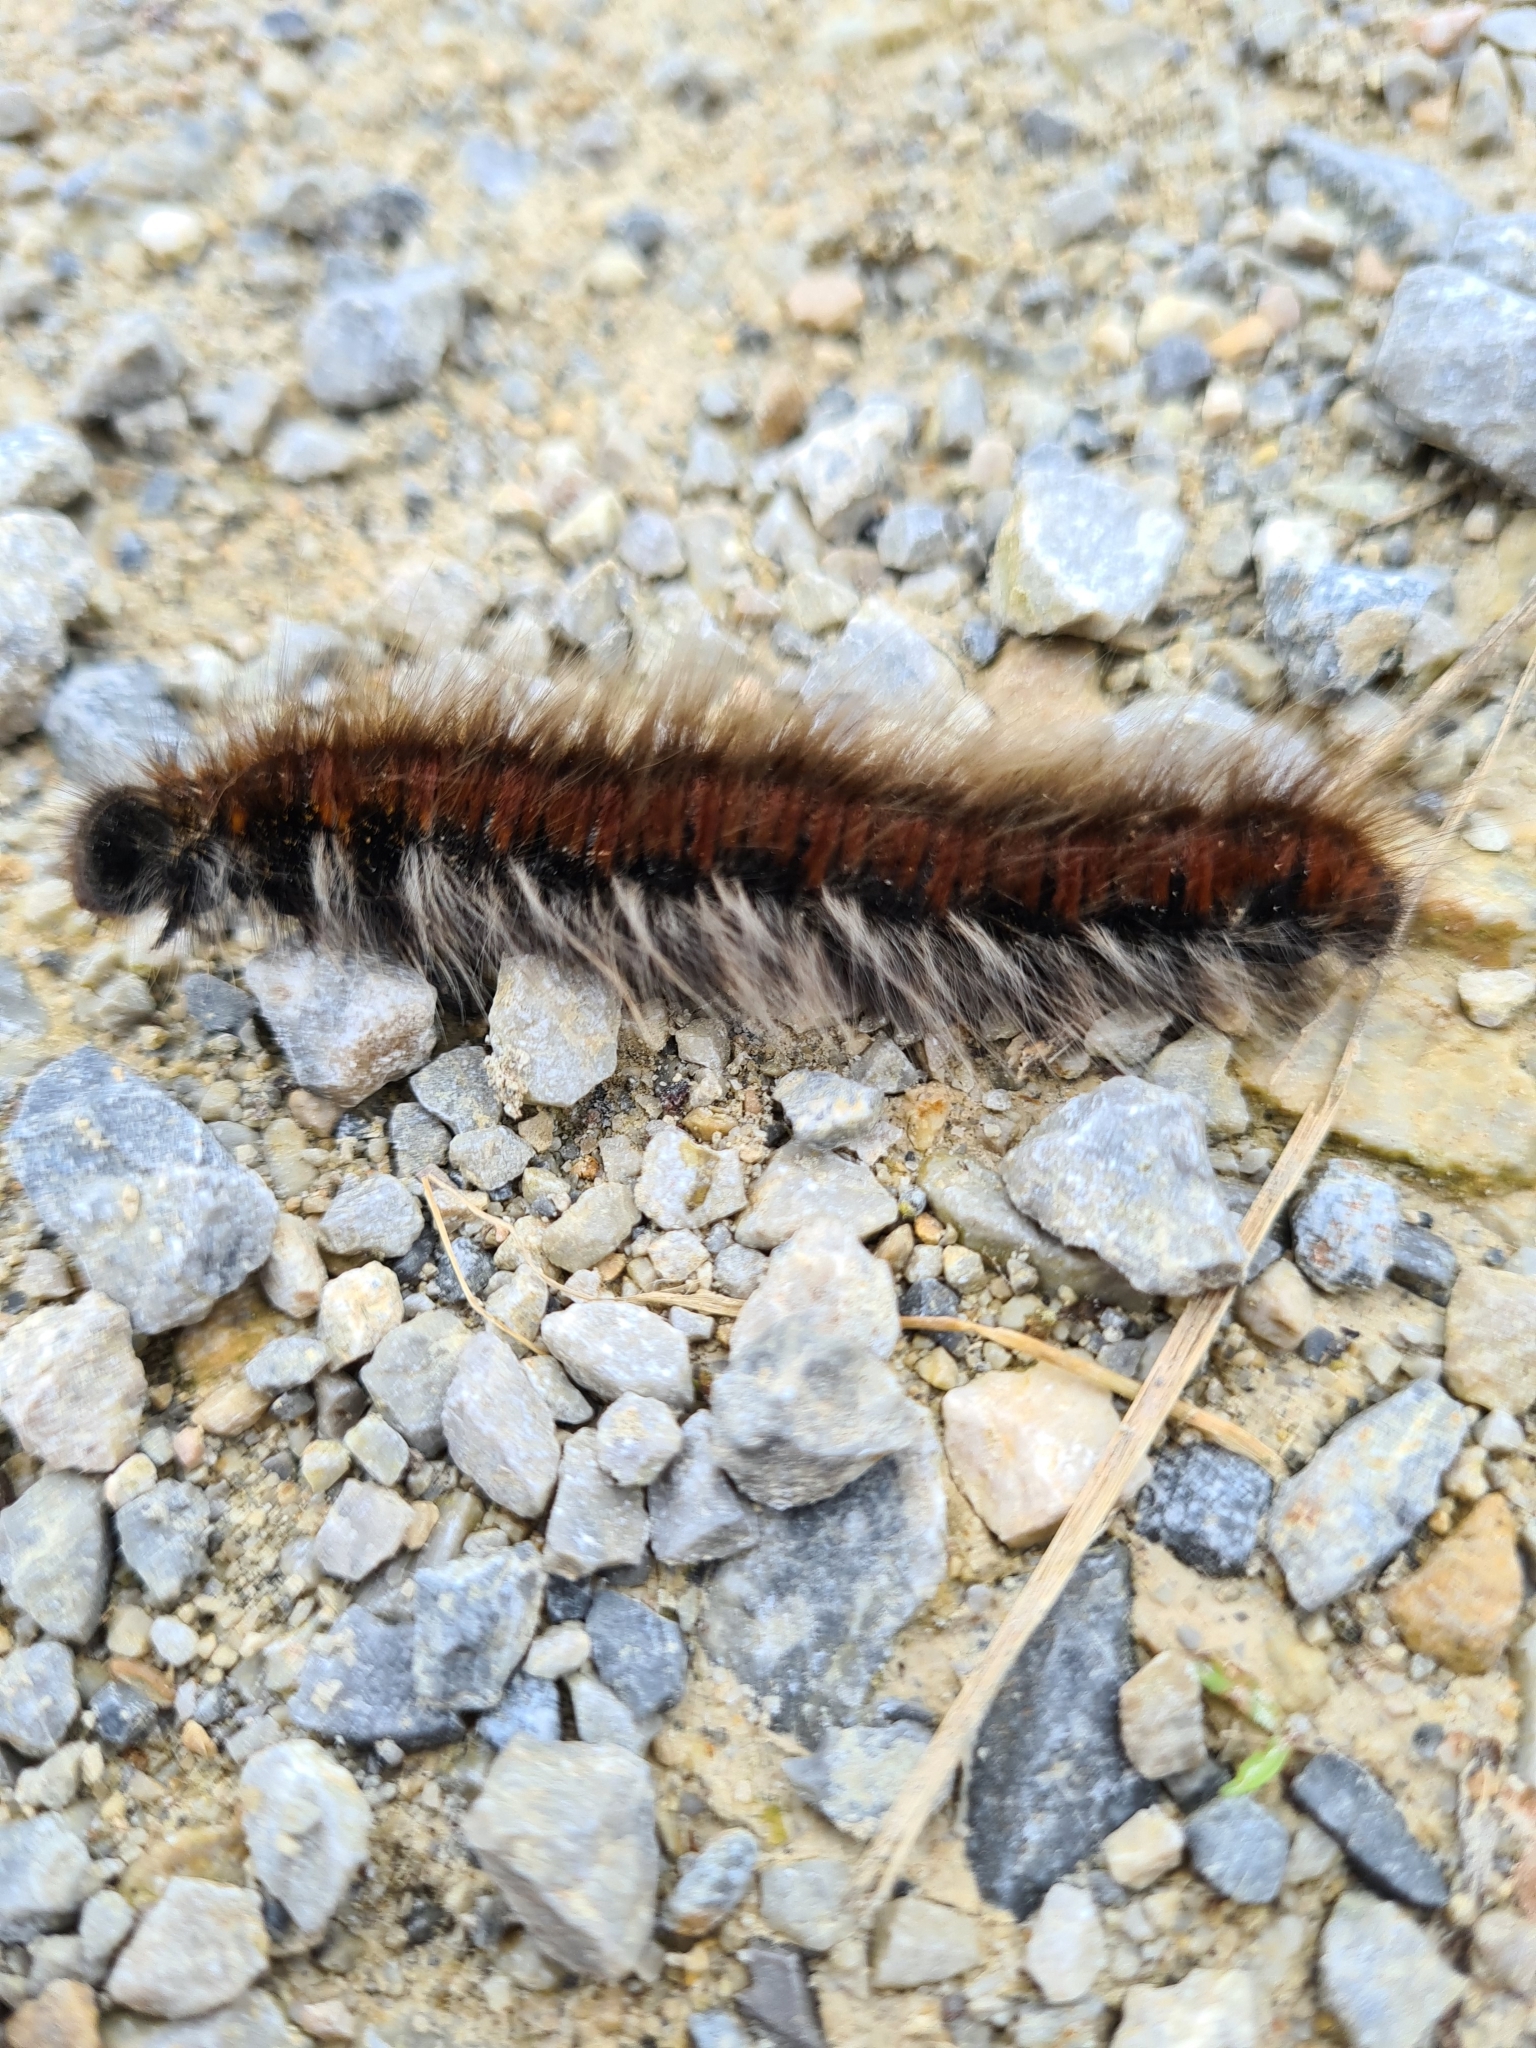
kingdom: Animalia
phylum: Arthropoda
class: Insecta
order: Lepidoptera
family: Lasiocampidae
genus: Macrothylacia
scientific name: Macrothylacia rubi
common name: Fox moth
